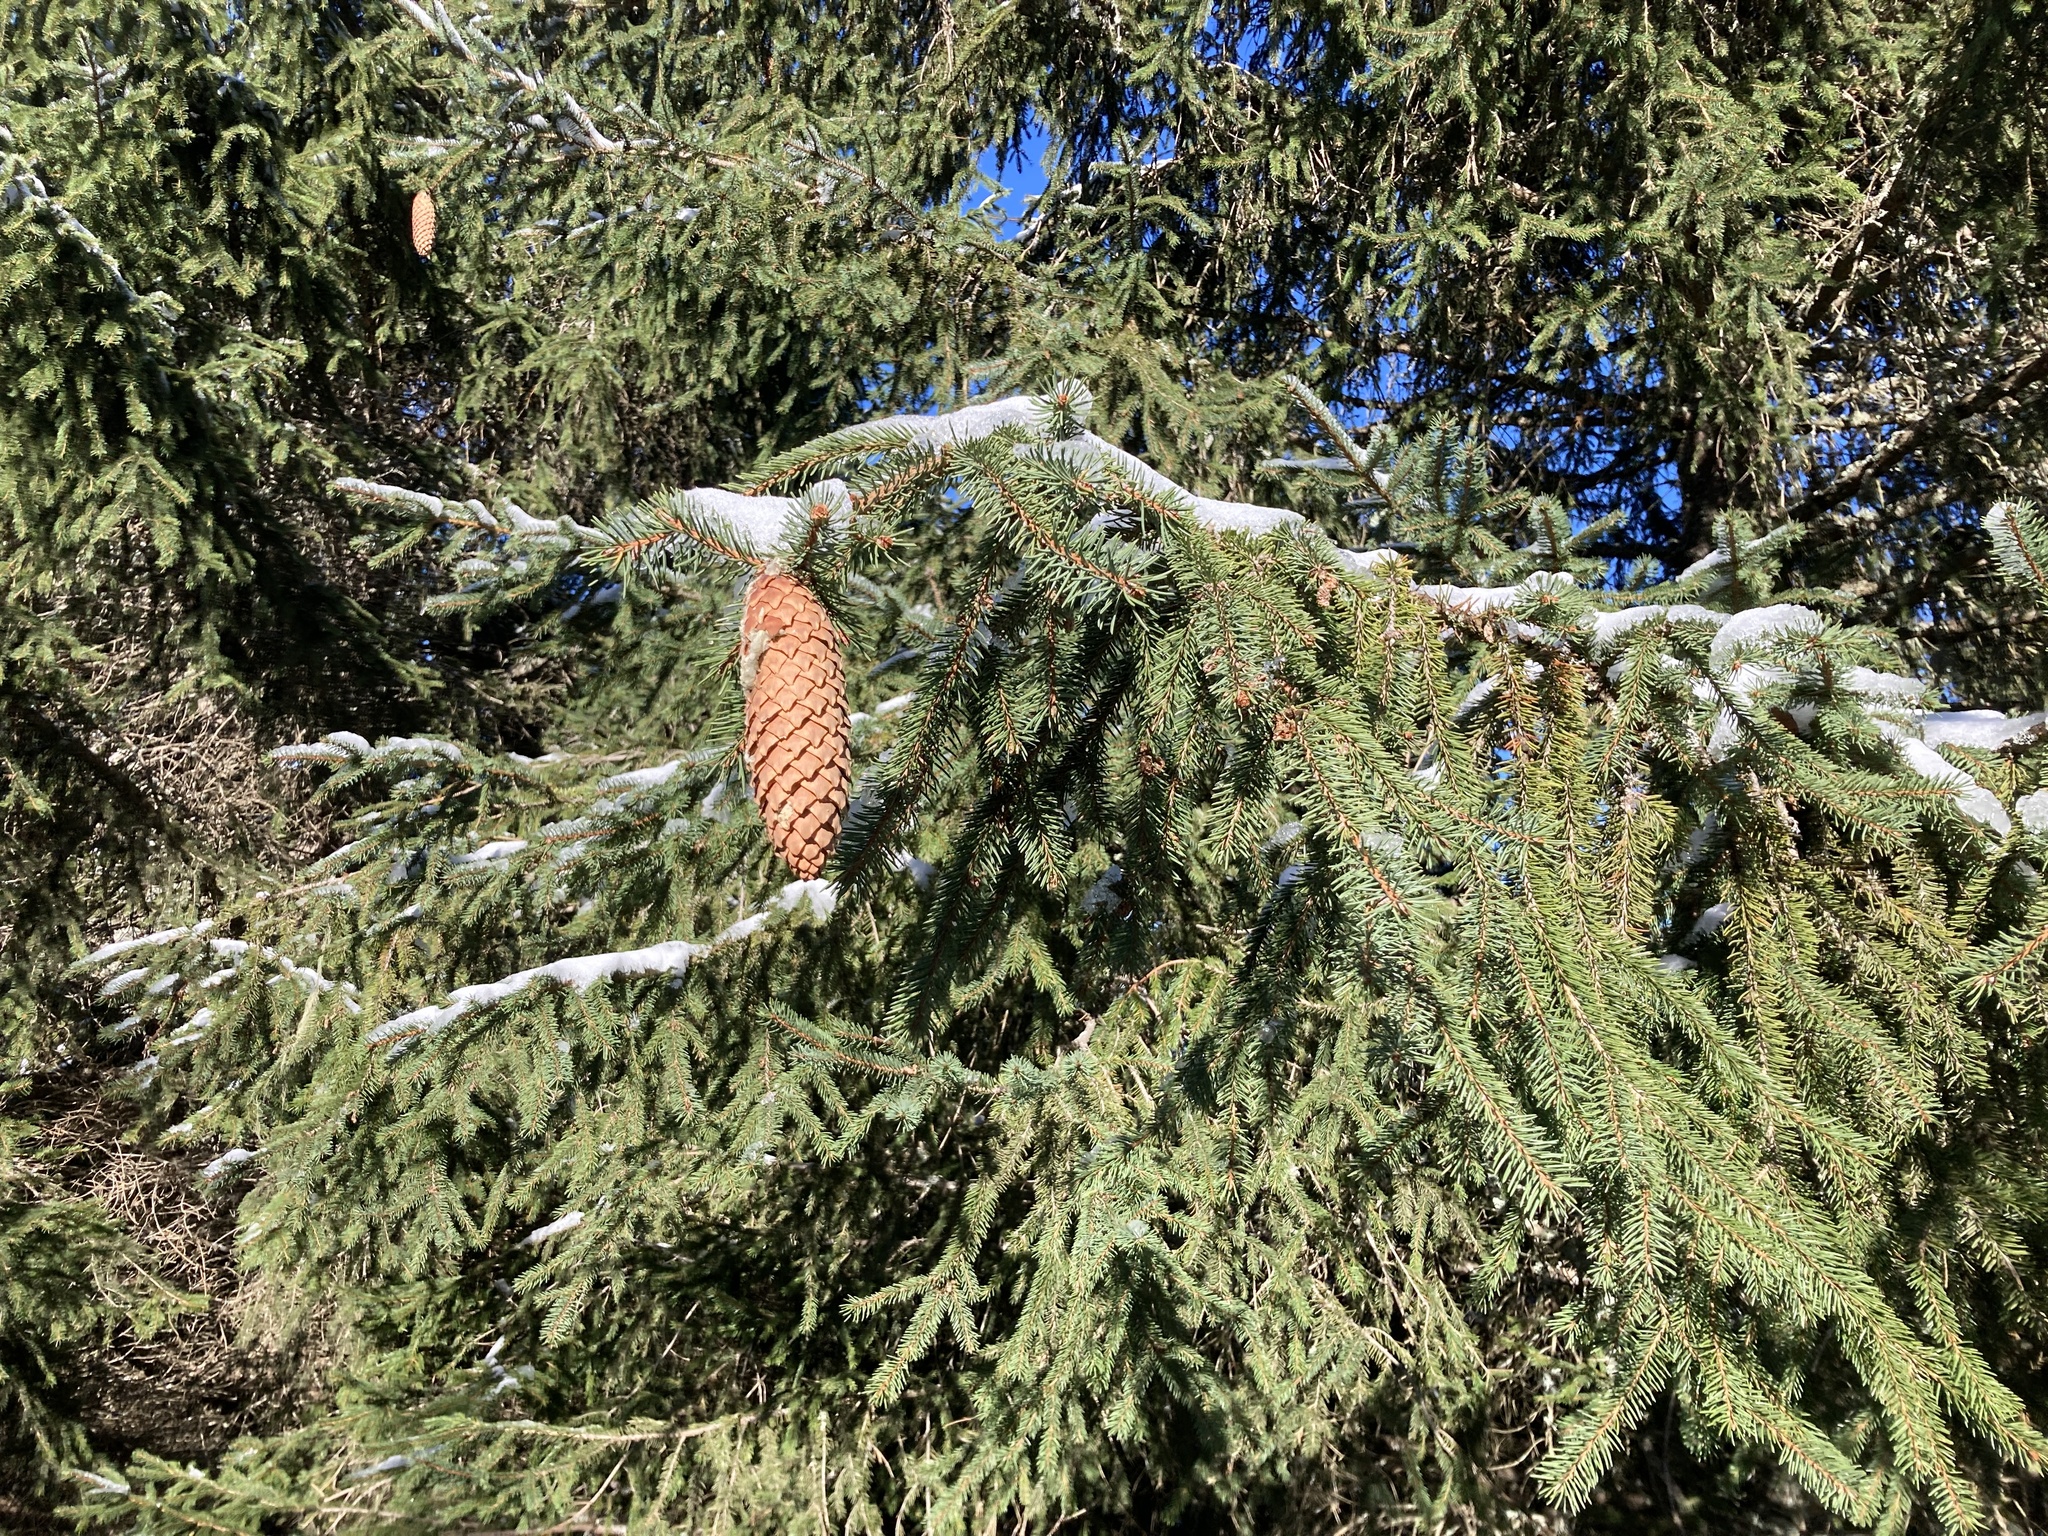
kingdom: Plantae
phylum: Tracheophyta
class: Pinopsida
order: Pinales
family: Pinaceae
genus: Picea
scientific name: Picea abies
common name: Norway spruce
